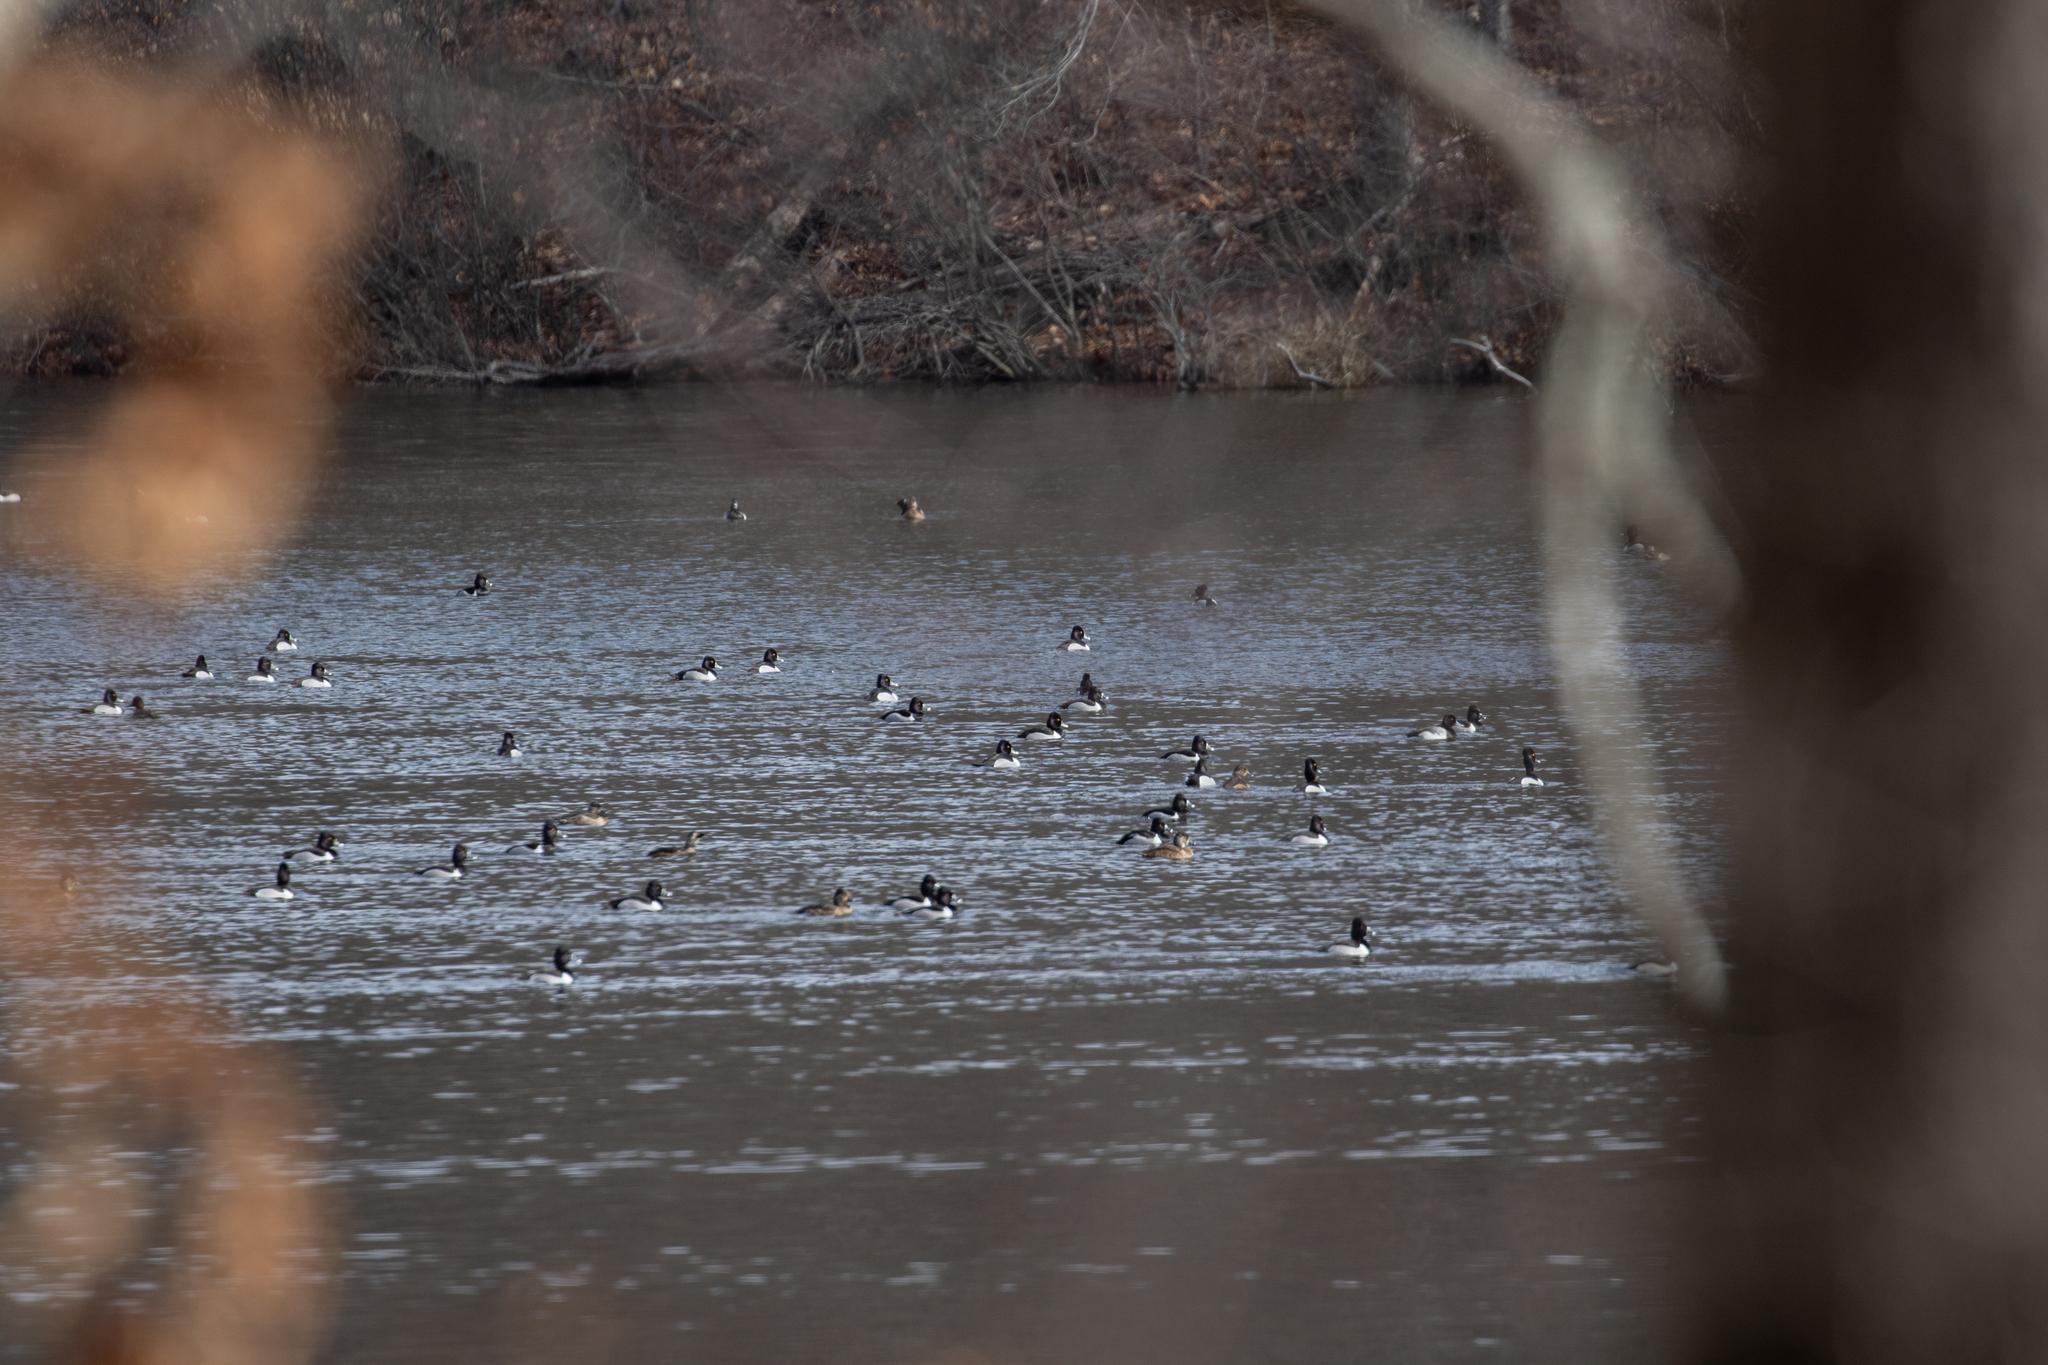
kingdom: Animalia
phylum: Chordata
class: Aves
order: Anseriformes
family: Anatidae
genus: Aythya
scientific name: Aythya collaris
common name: Ring-necked duck
